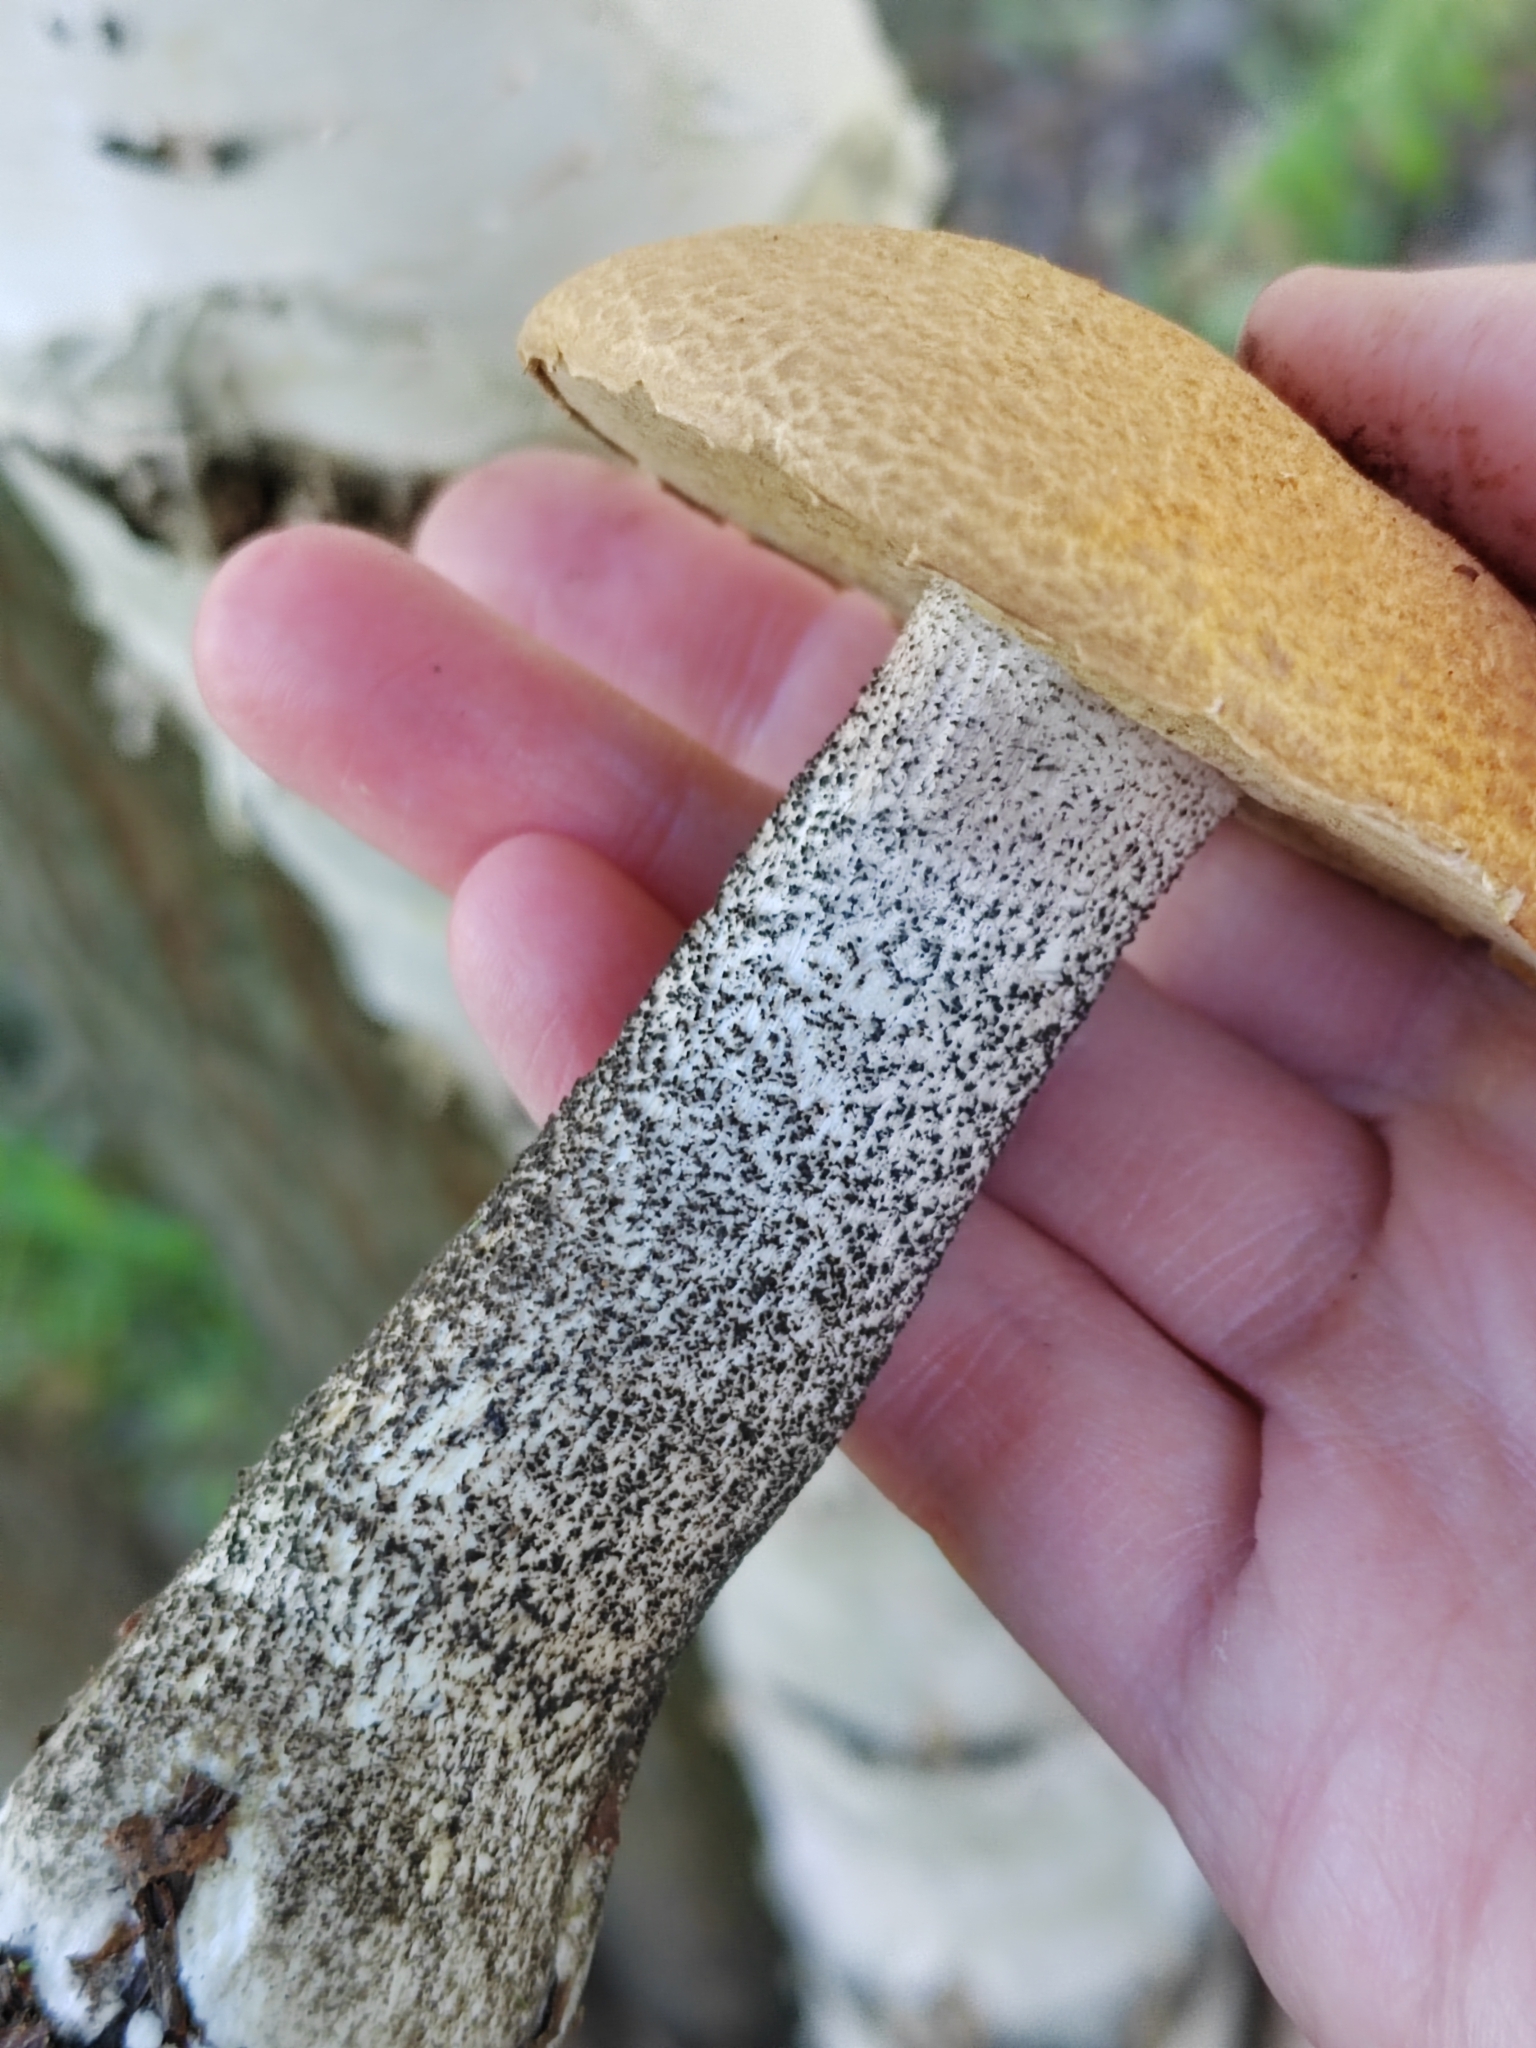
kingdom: Fungi
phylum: Basidiomycota
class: Agaricomycetes
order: Boletales
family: Boletaceae
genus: Leccinum
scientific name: Leccinum versipelle
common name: Orange birch bolete
